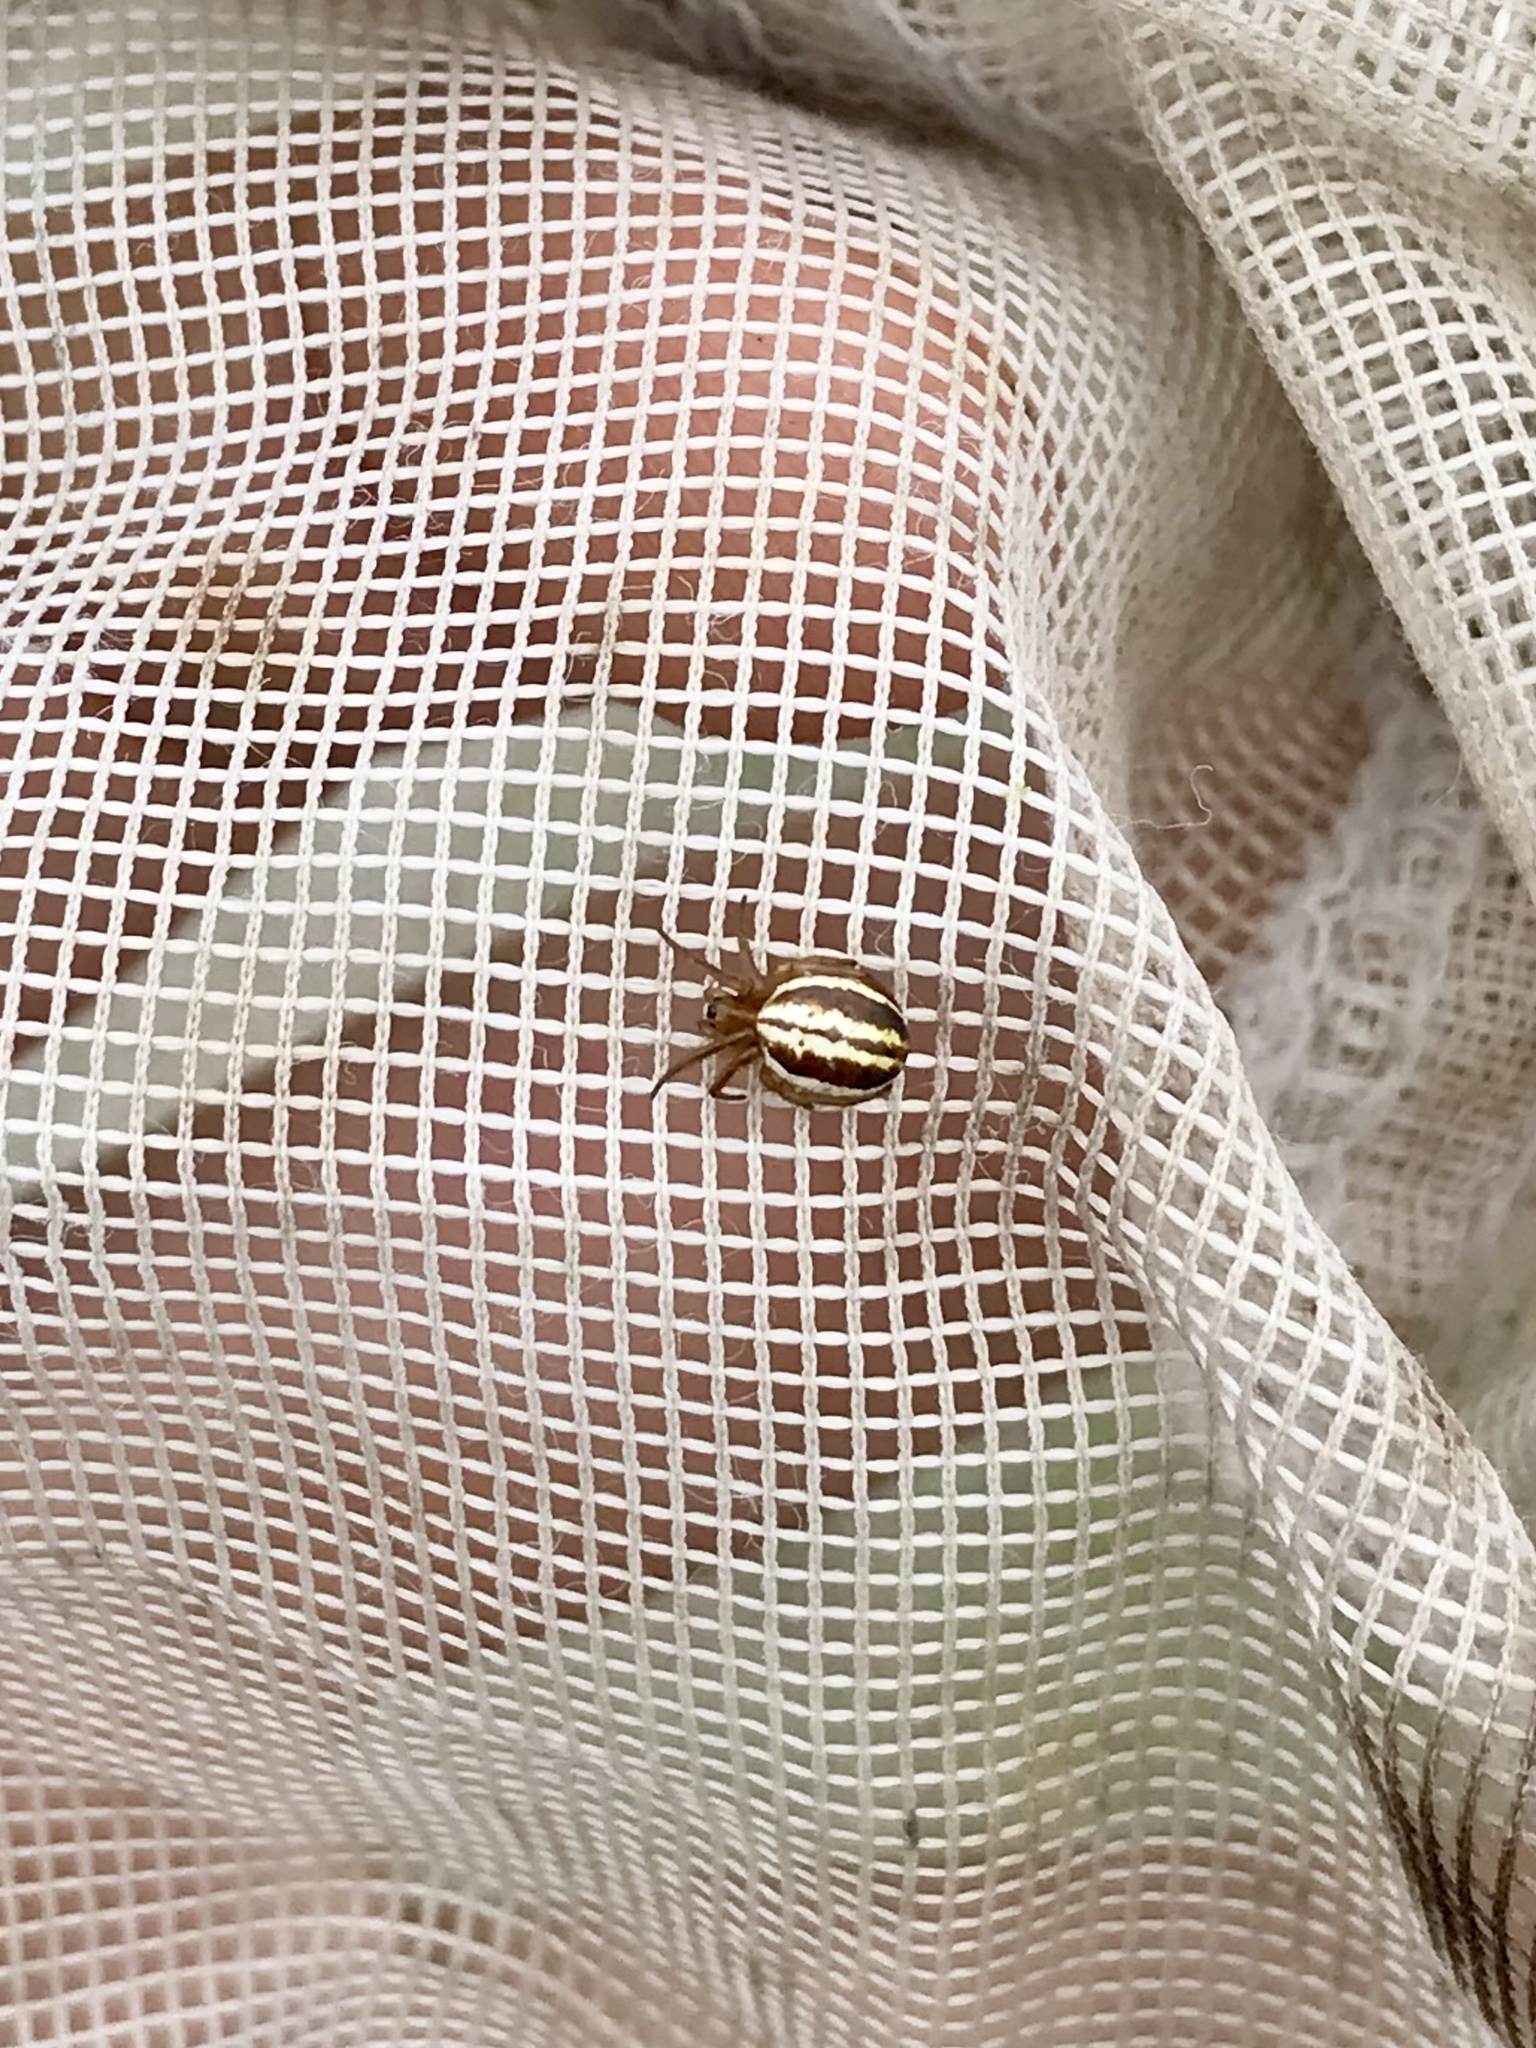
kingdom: Animalia
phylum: Arthropoda
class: Arachnida
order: Araneae
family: Araneidae
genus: Araneus
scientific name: Araneus pratensis
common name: Openfield orbweaver
